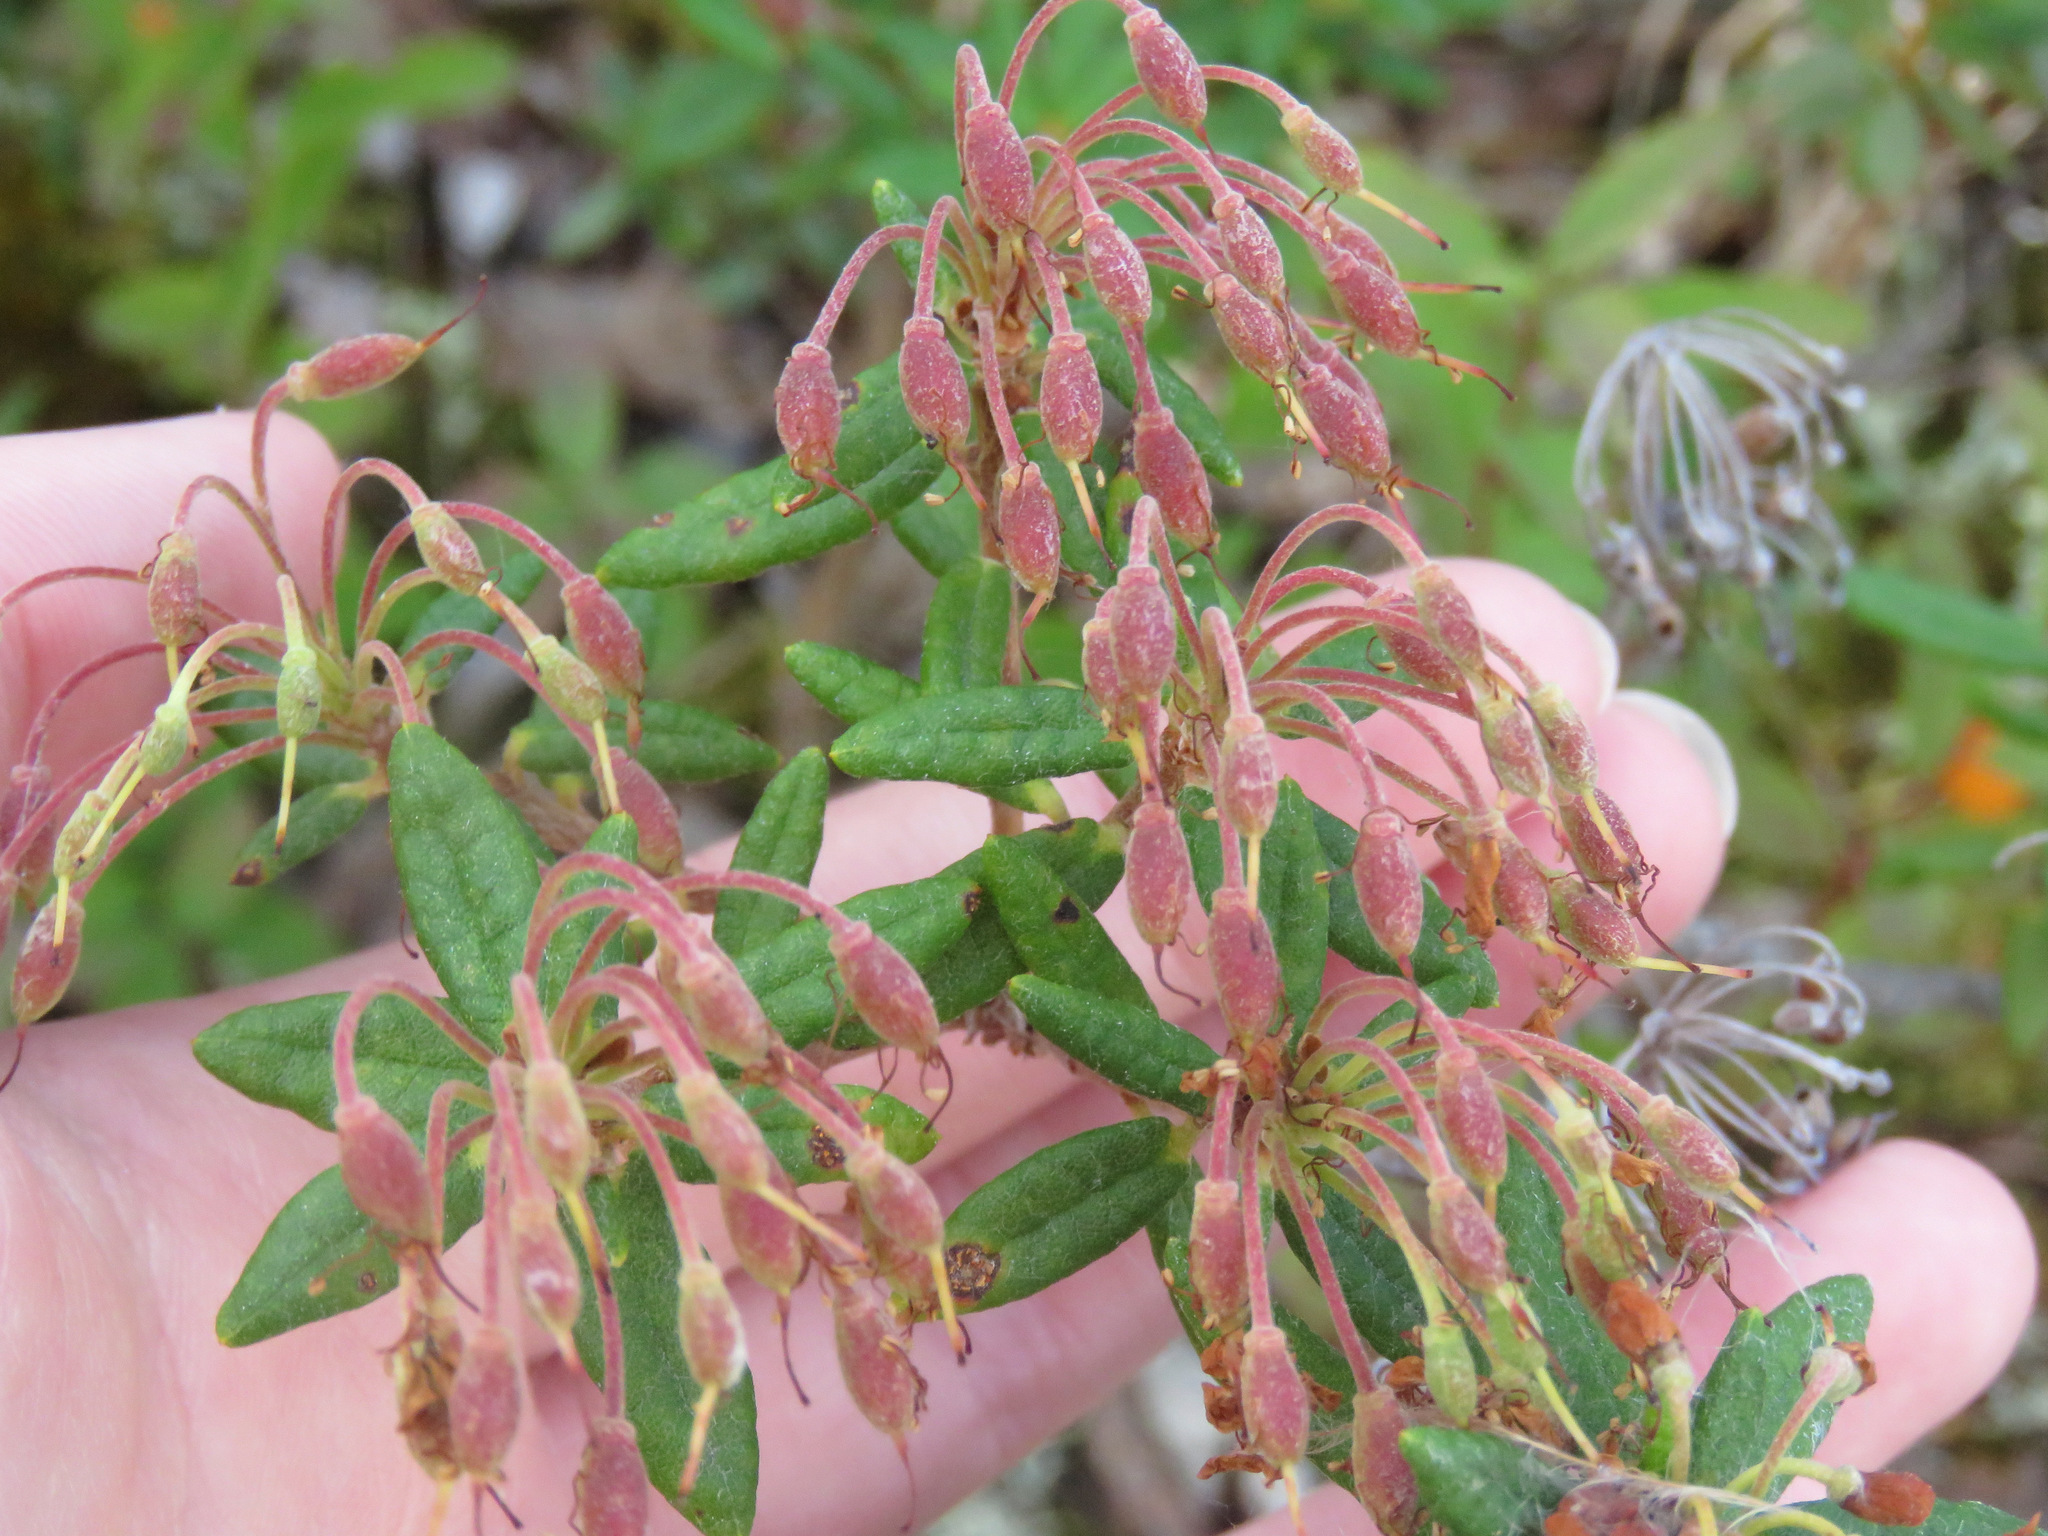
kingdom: Plantae
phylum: Tracheophyta
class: Magnoliopsida
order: Ericales
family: Ericaceae
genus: Rhododendron
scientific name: Rhododendron groenlandicum
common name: Bog labrador tea
